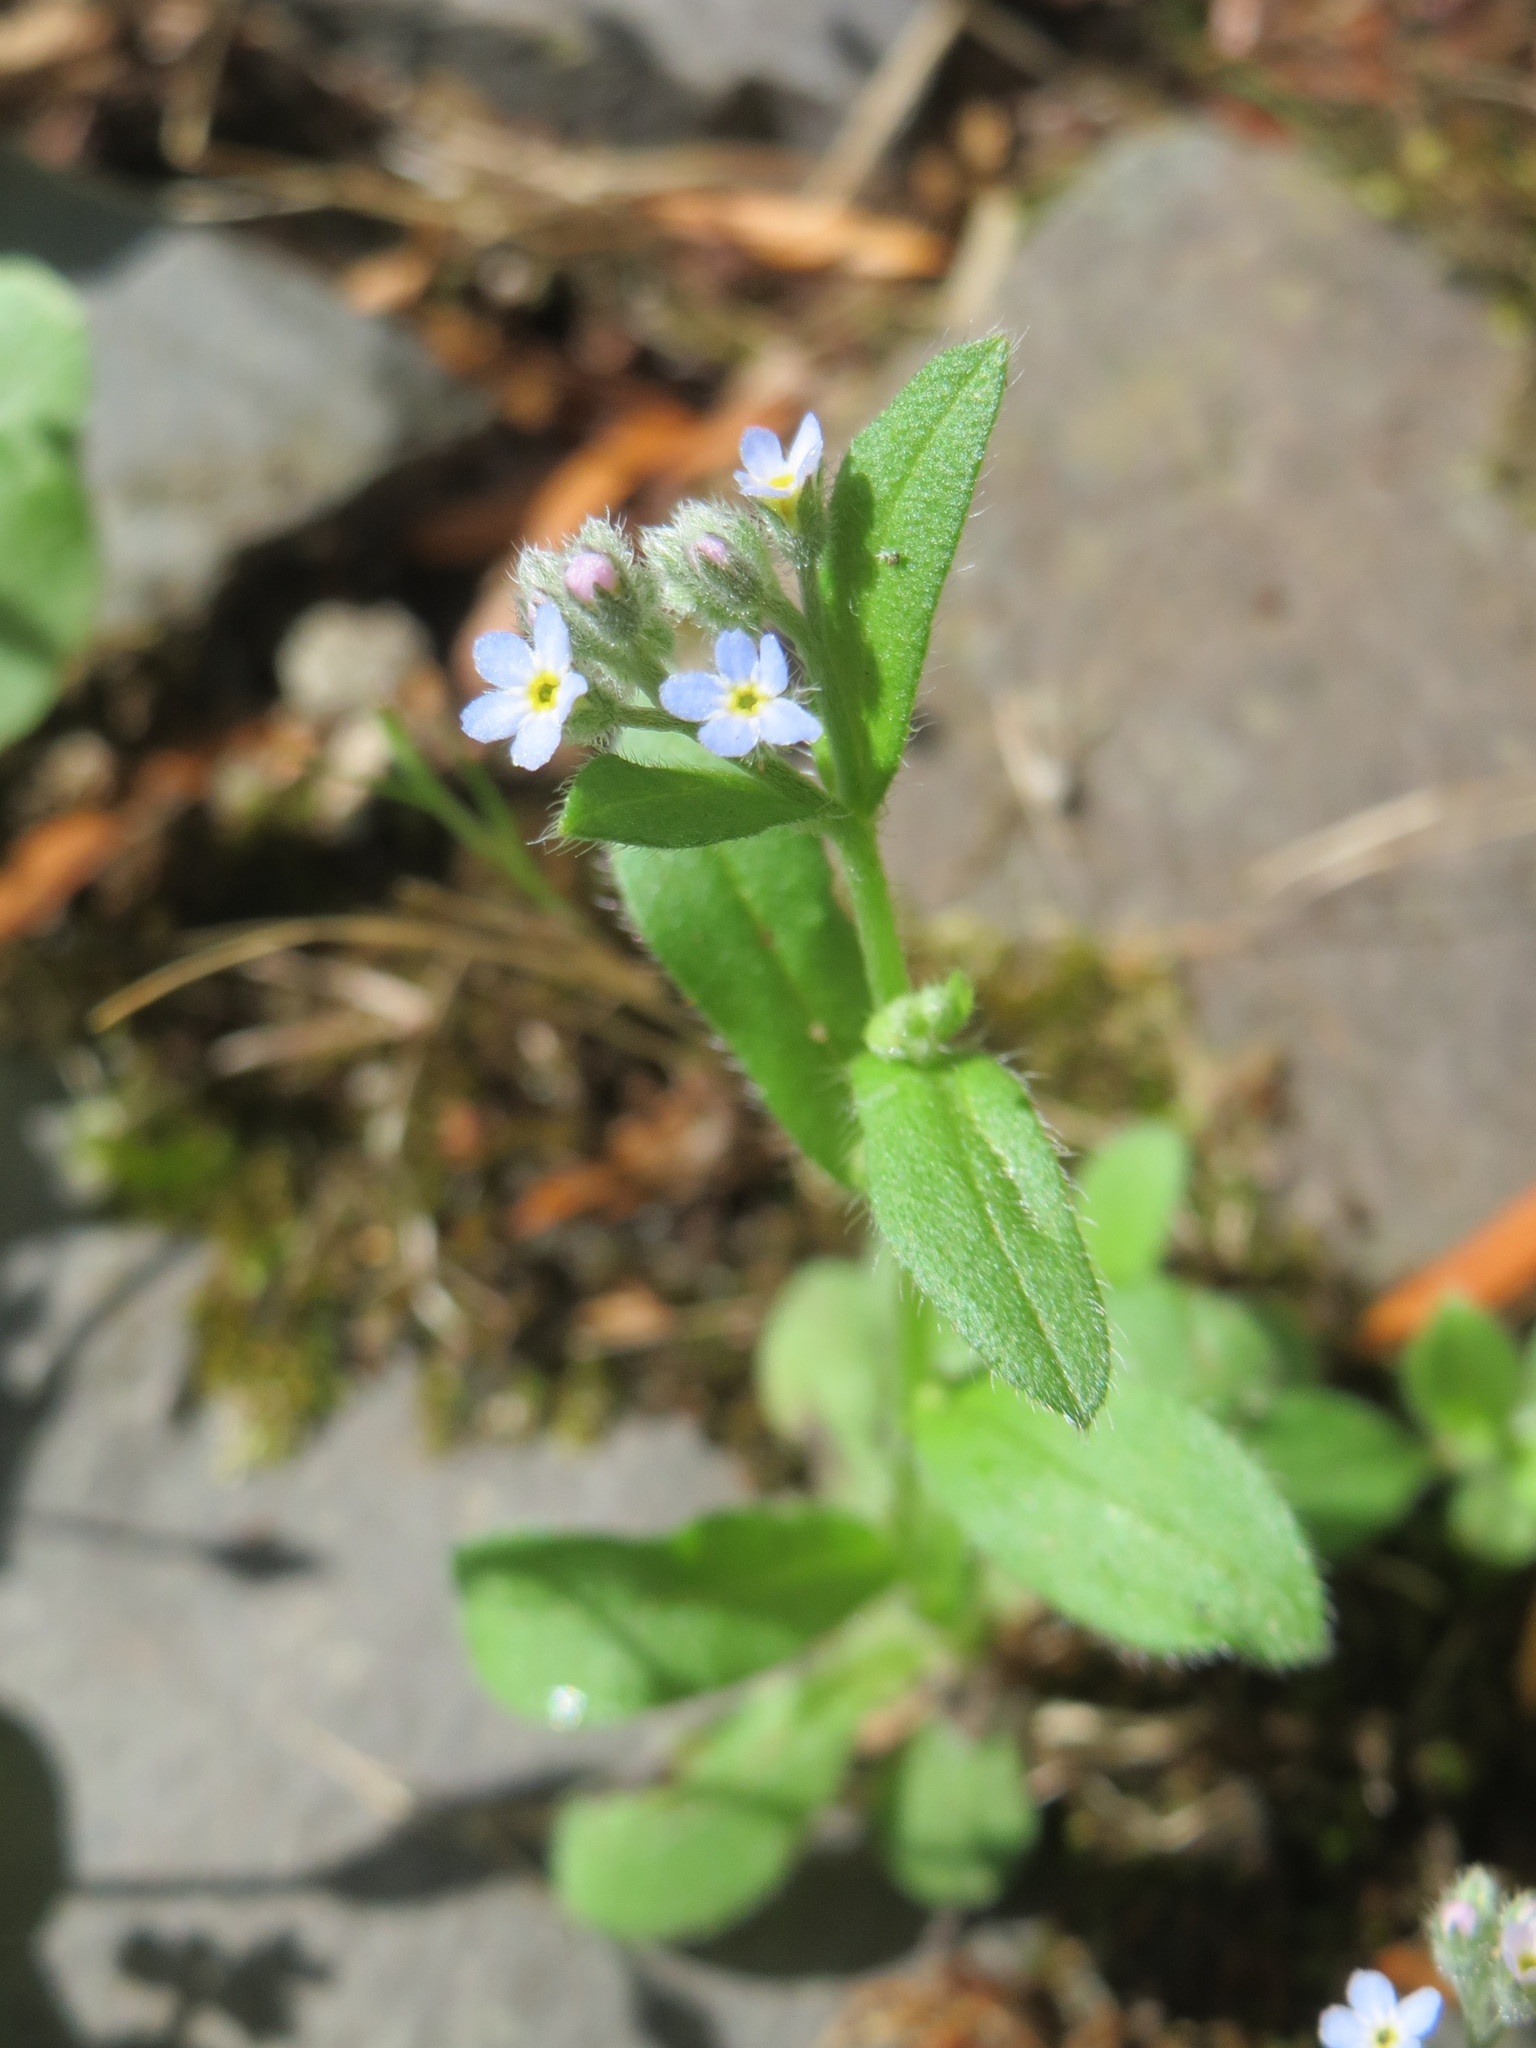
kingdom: Plantae
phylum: Tracheophyta
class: Magnoliopsida
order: Boraginales
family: Boraginaceae
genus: Myosotis
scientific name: Myosotis arvensis
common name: Field forget-me-not
